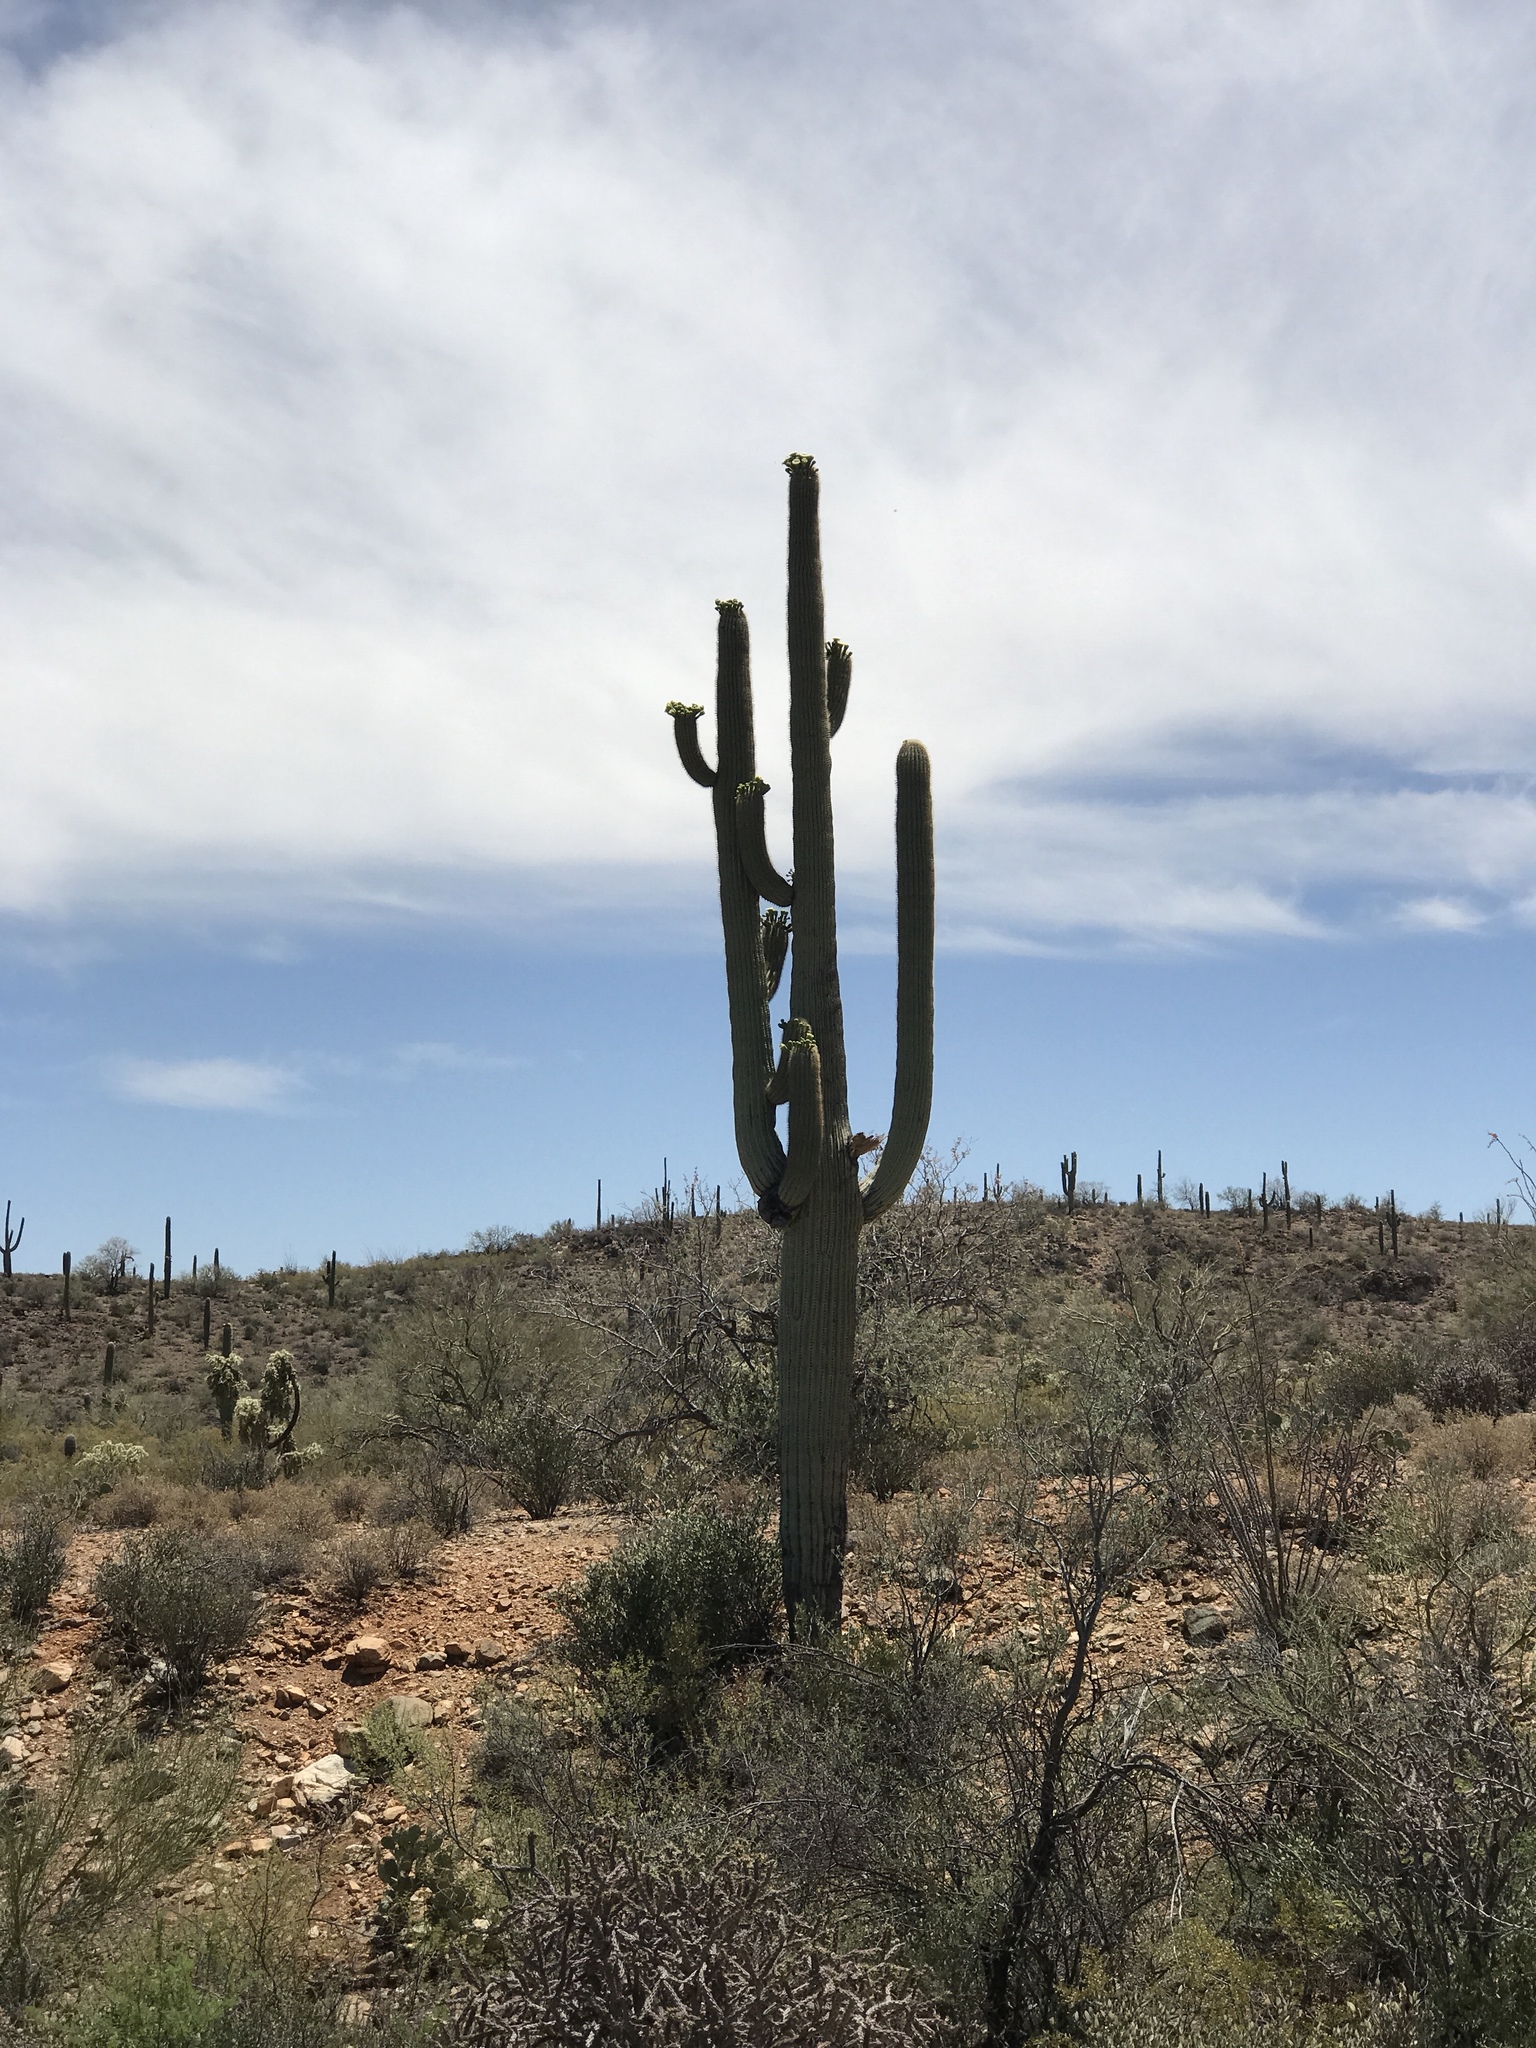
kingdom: Plantae
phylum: Tracheophyta
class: Magnoliopsida
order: Caryophyllales
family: Cactaceae
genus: Carnegiea
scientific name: Carnegiea gigantea
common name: Saguaro
